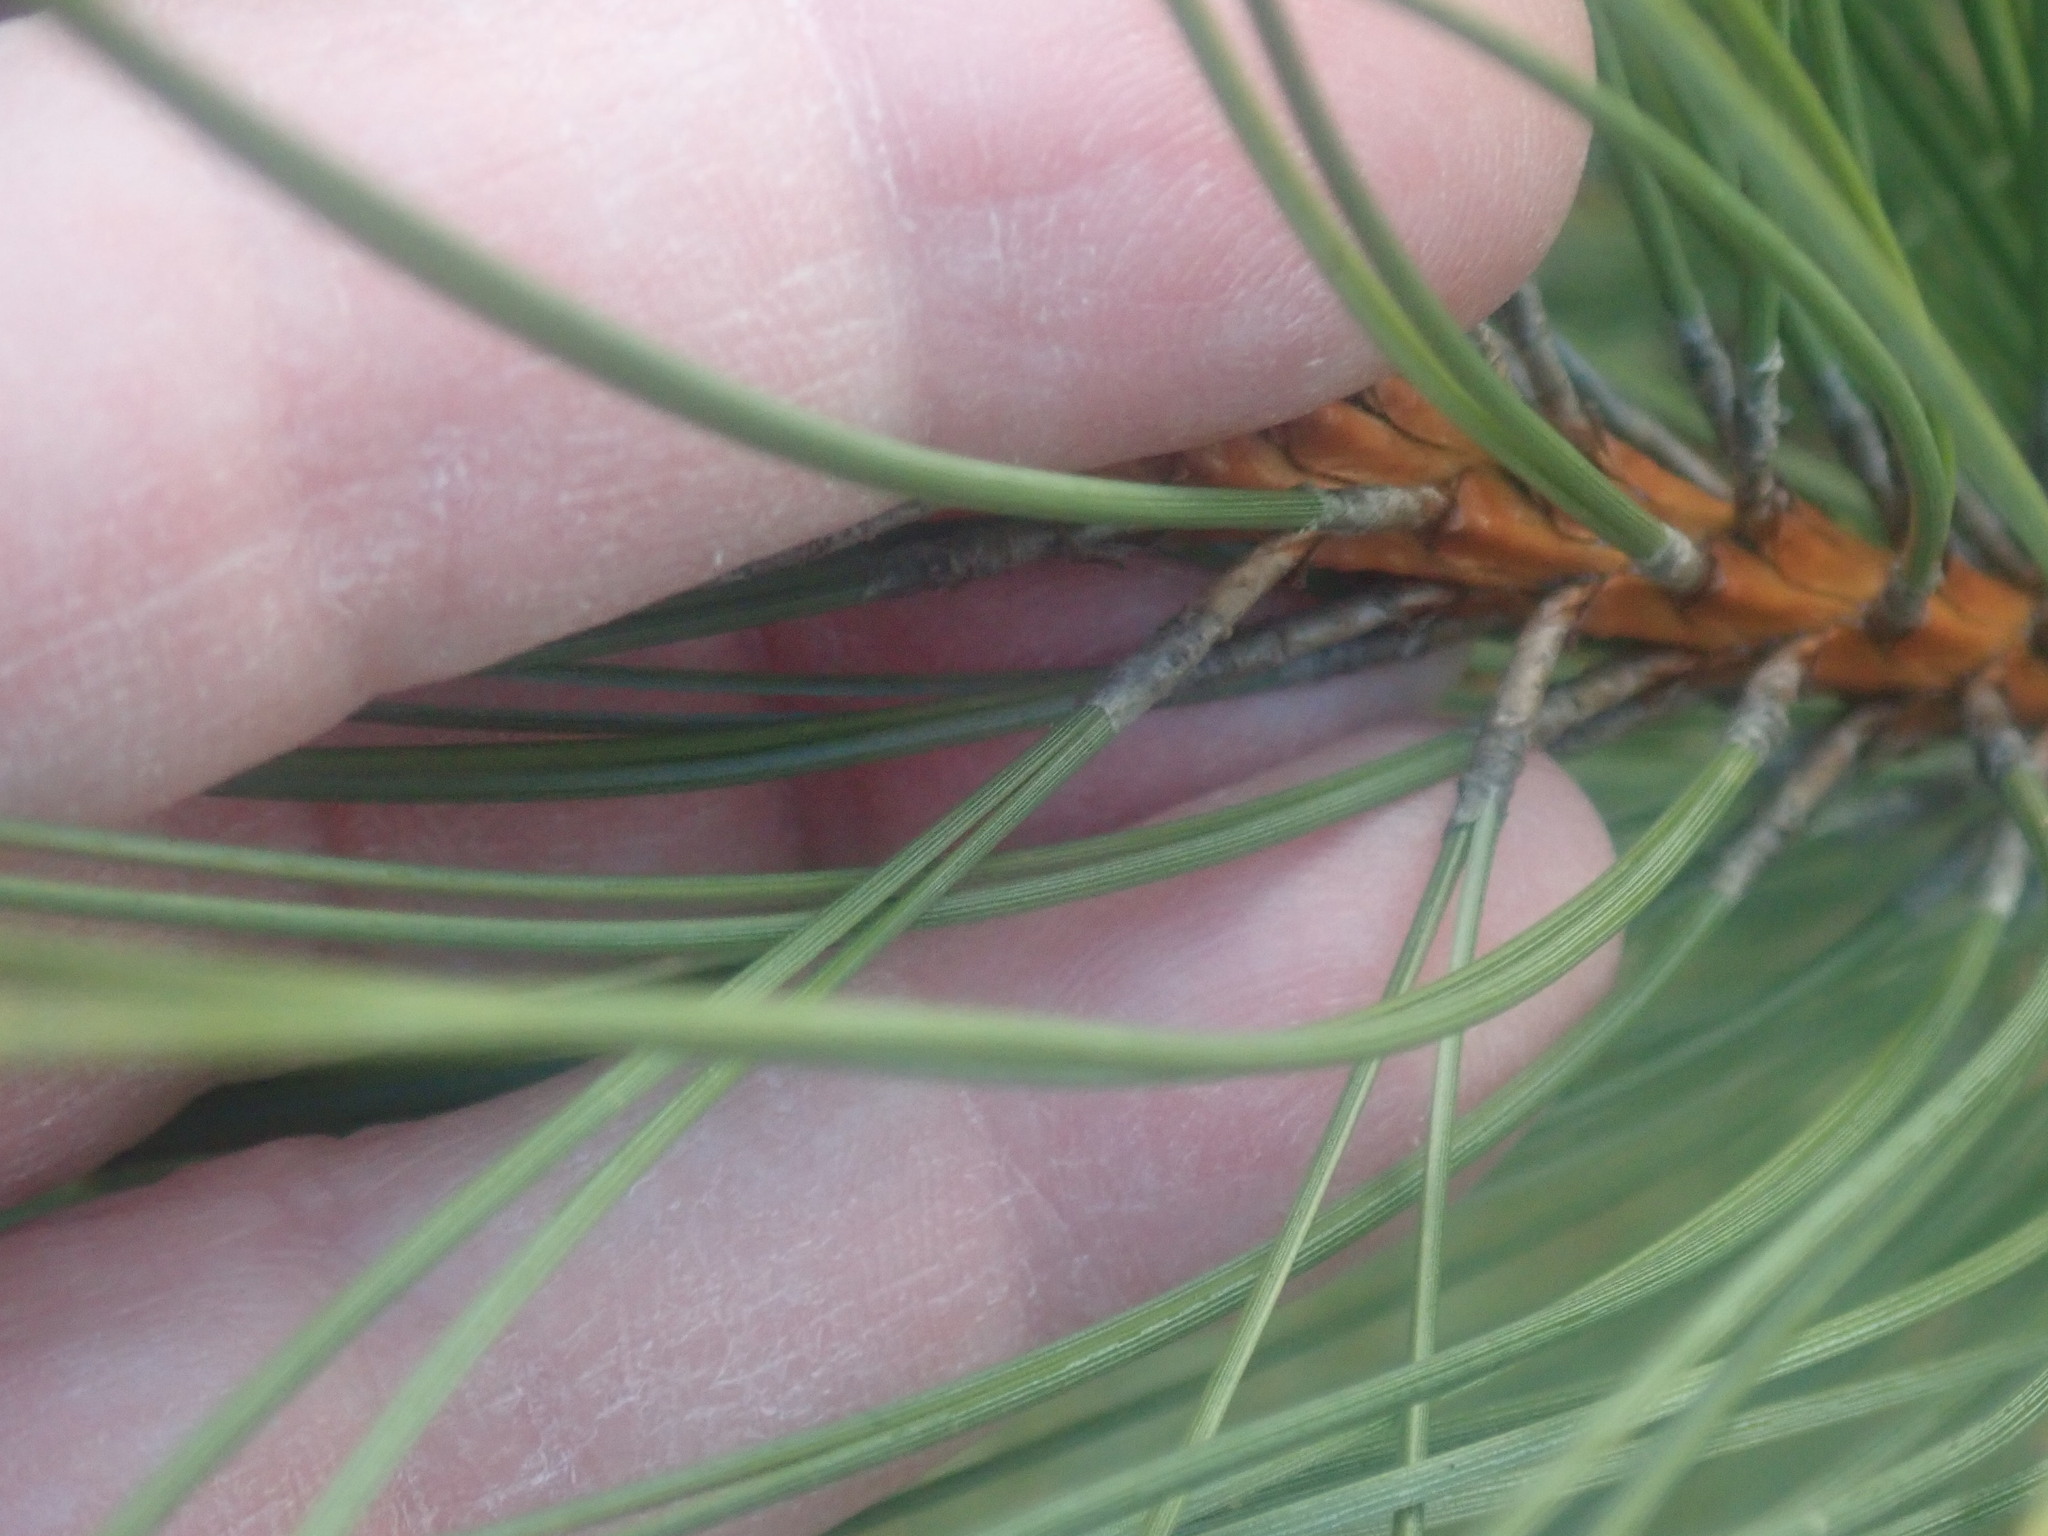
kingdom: Plantae
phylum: Tracheophyta
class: Pinopsida
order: Pinales
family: Pinaceae
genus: Pinus
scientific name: Pinus resinosa
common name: Norway pine
